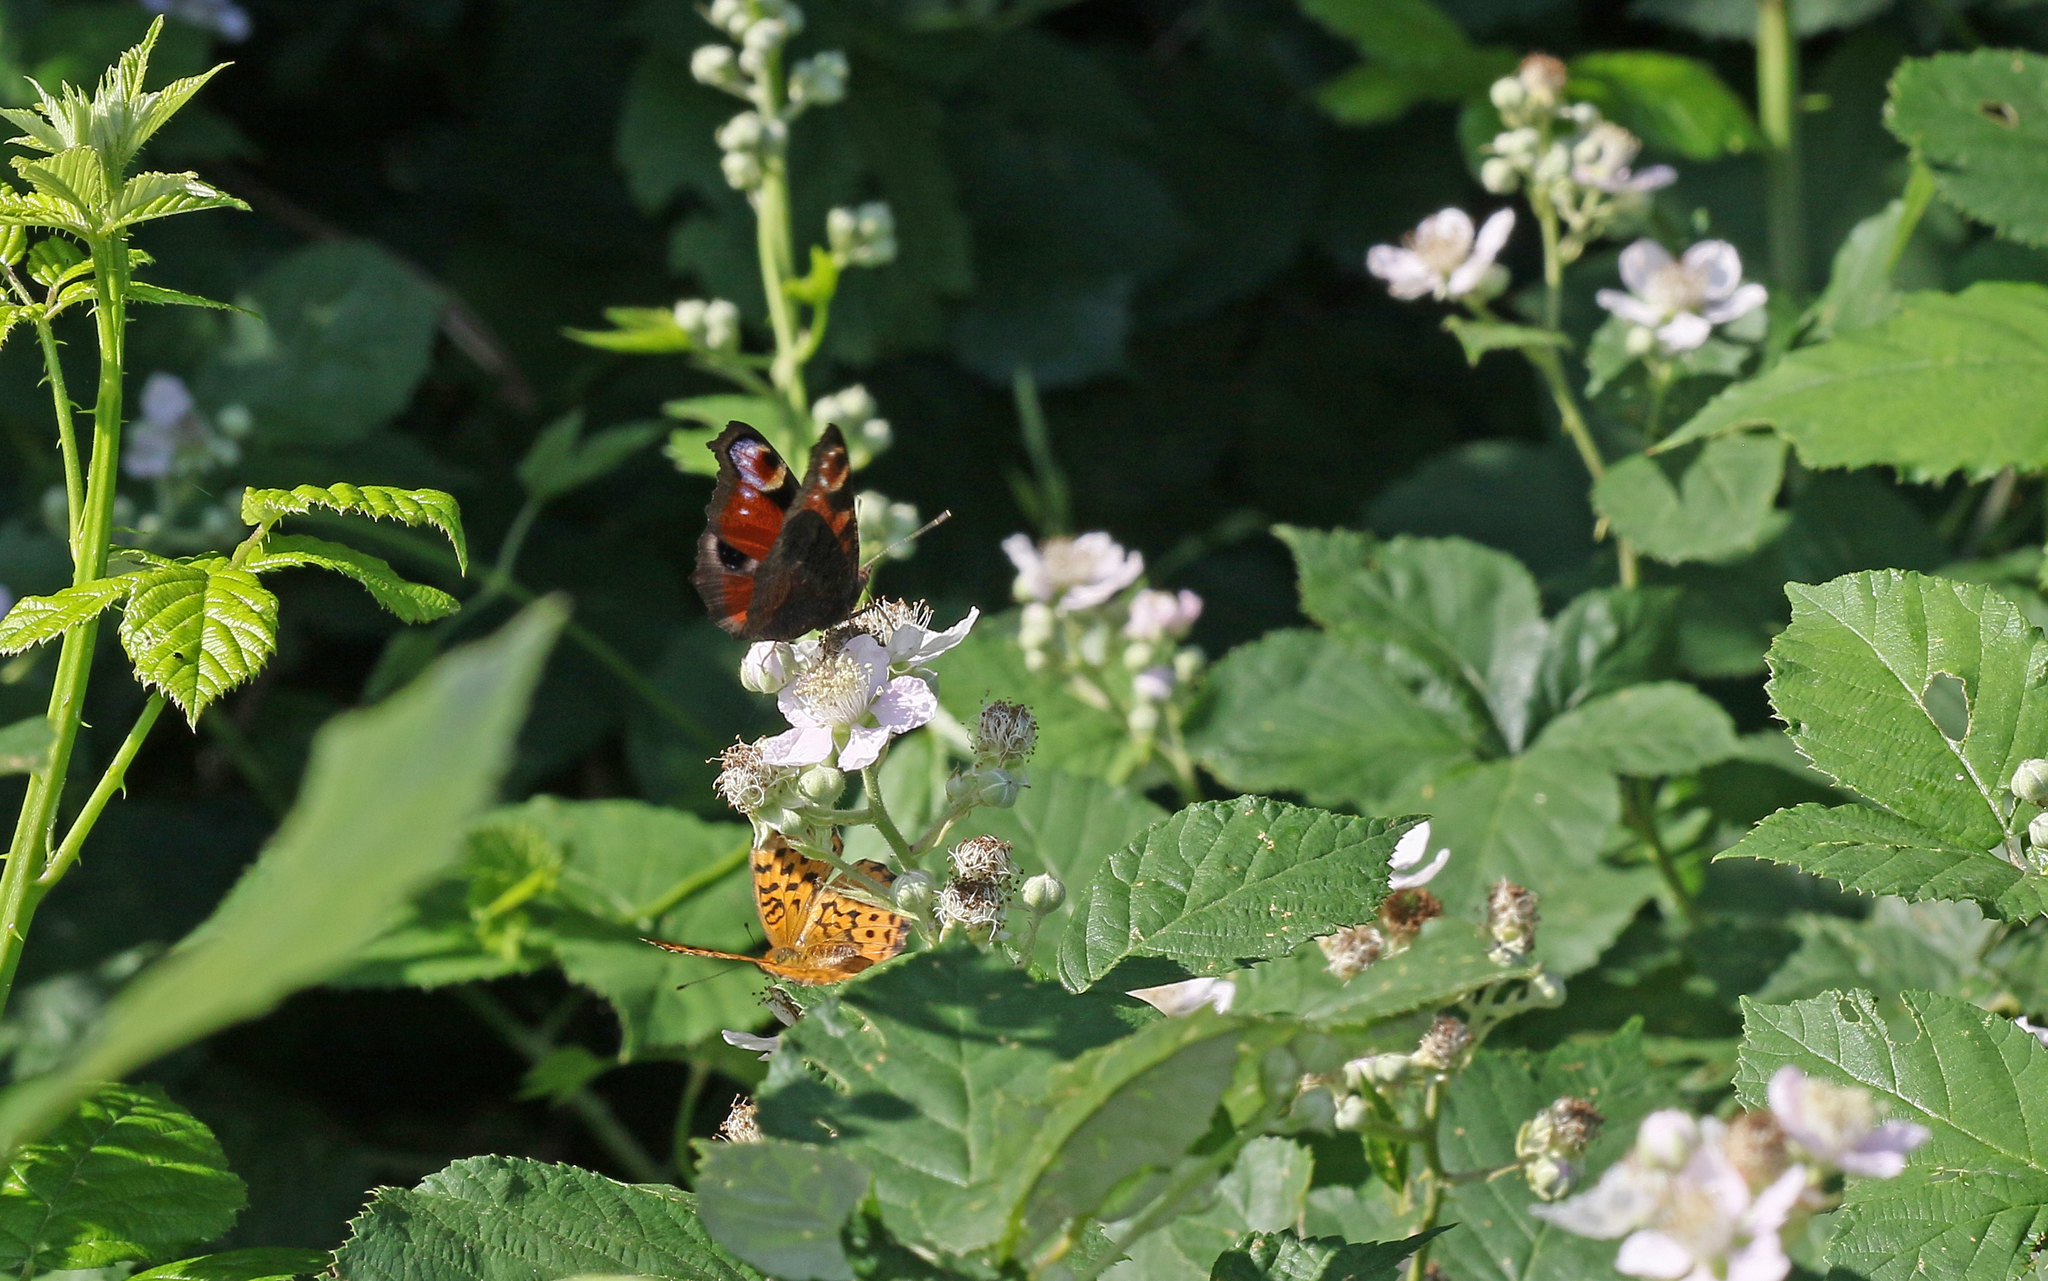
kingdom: Animalia
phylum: Arthropoda
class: Insecta
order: Lepidoptera
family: Nymphalidae
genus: Aglais
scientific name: Aglais io
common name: Peacock
